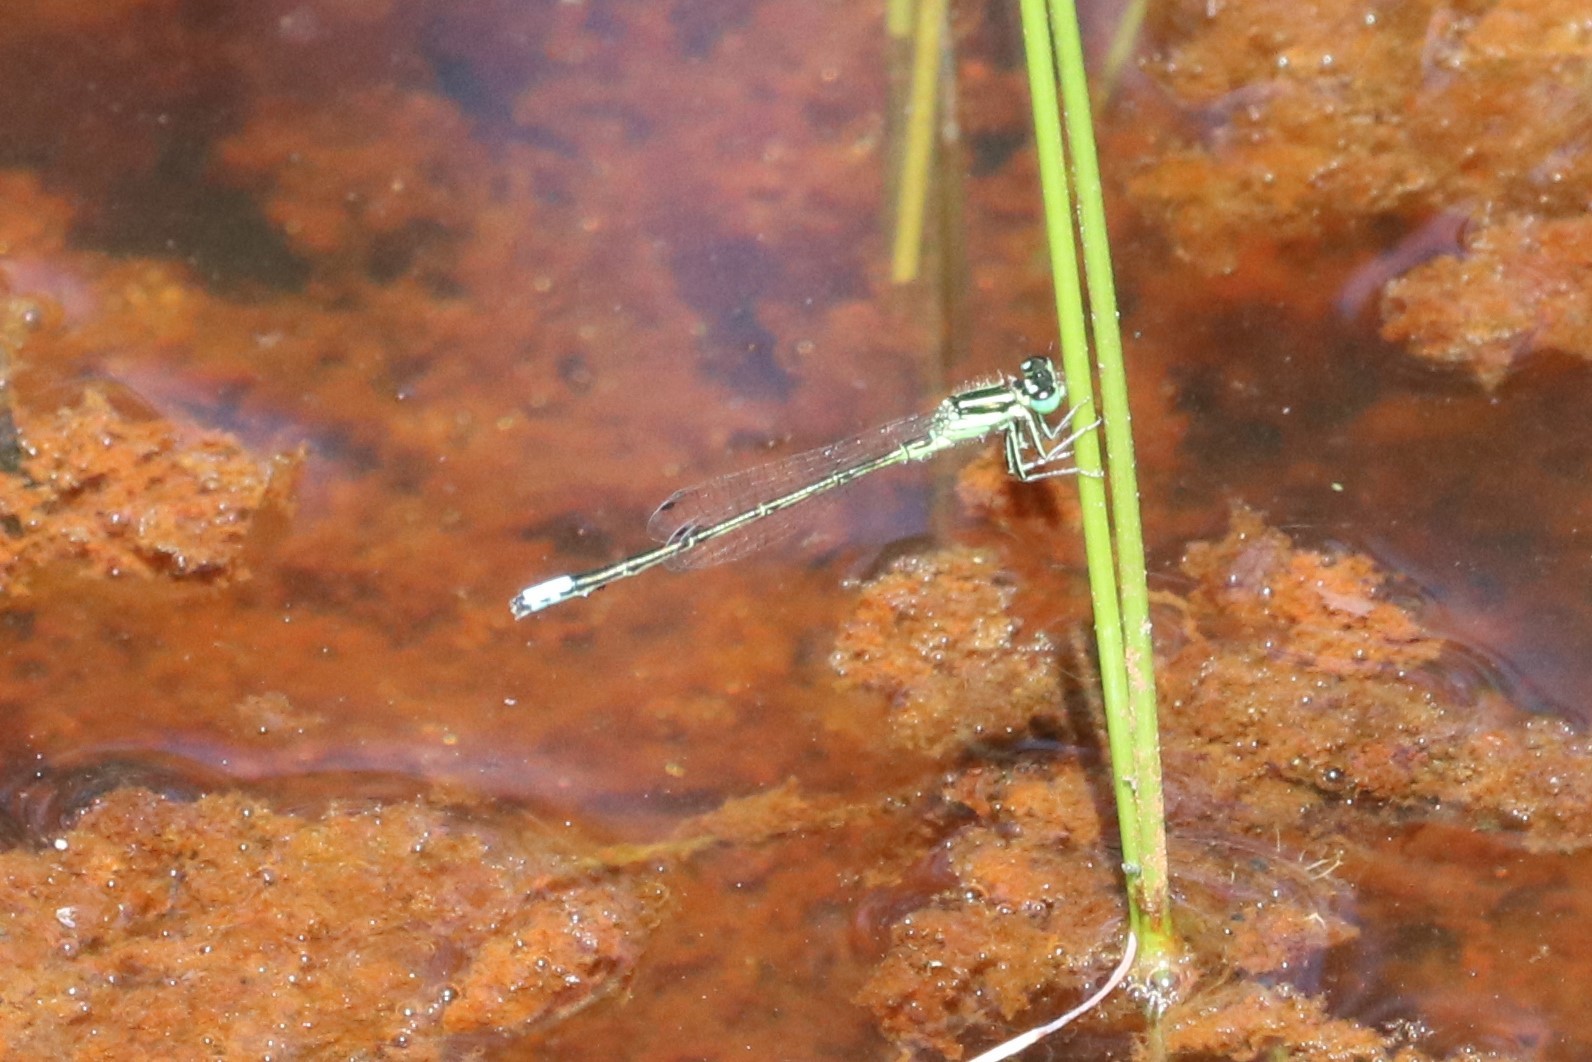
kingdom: Animalia
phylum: Arthropoda
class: Insecta
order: Odonata
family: Coenagrionidae
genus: Ischnura
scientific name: Ischnura verticalis
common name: Eastern forktail
